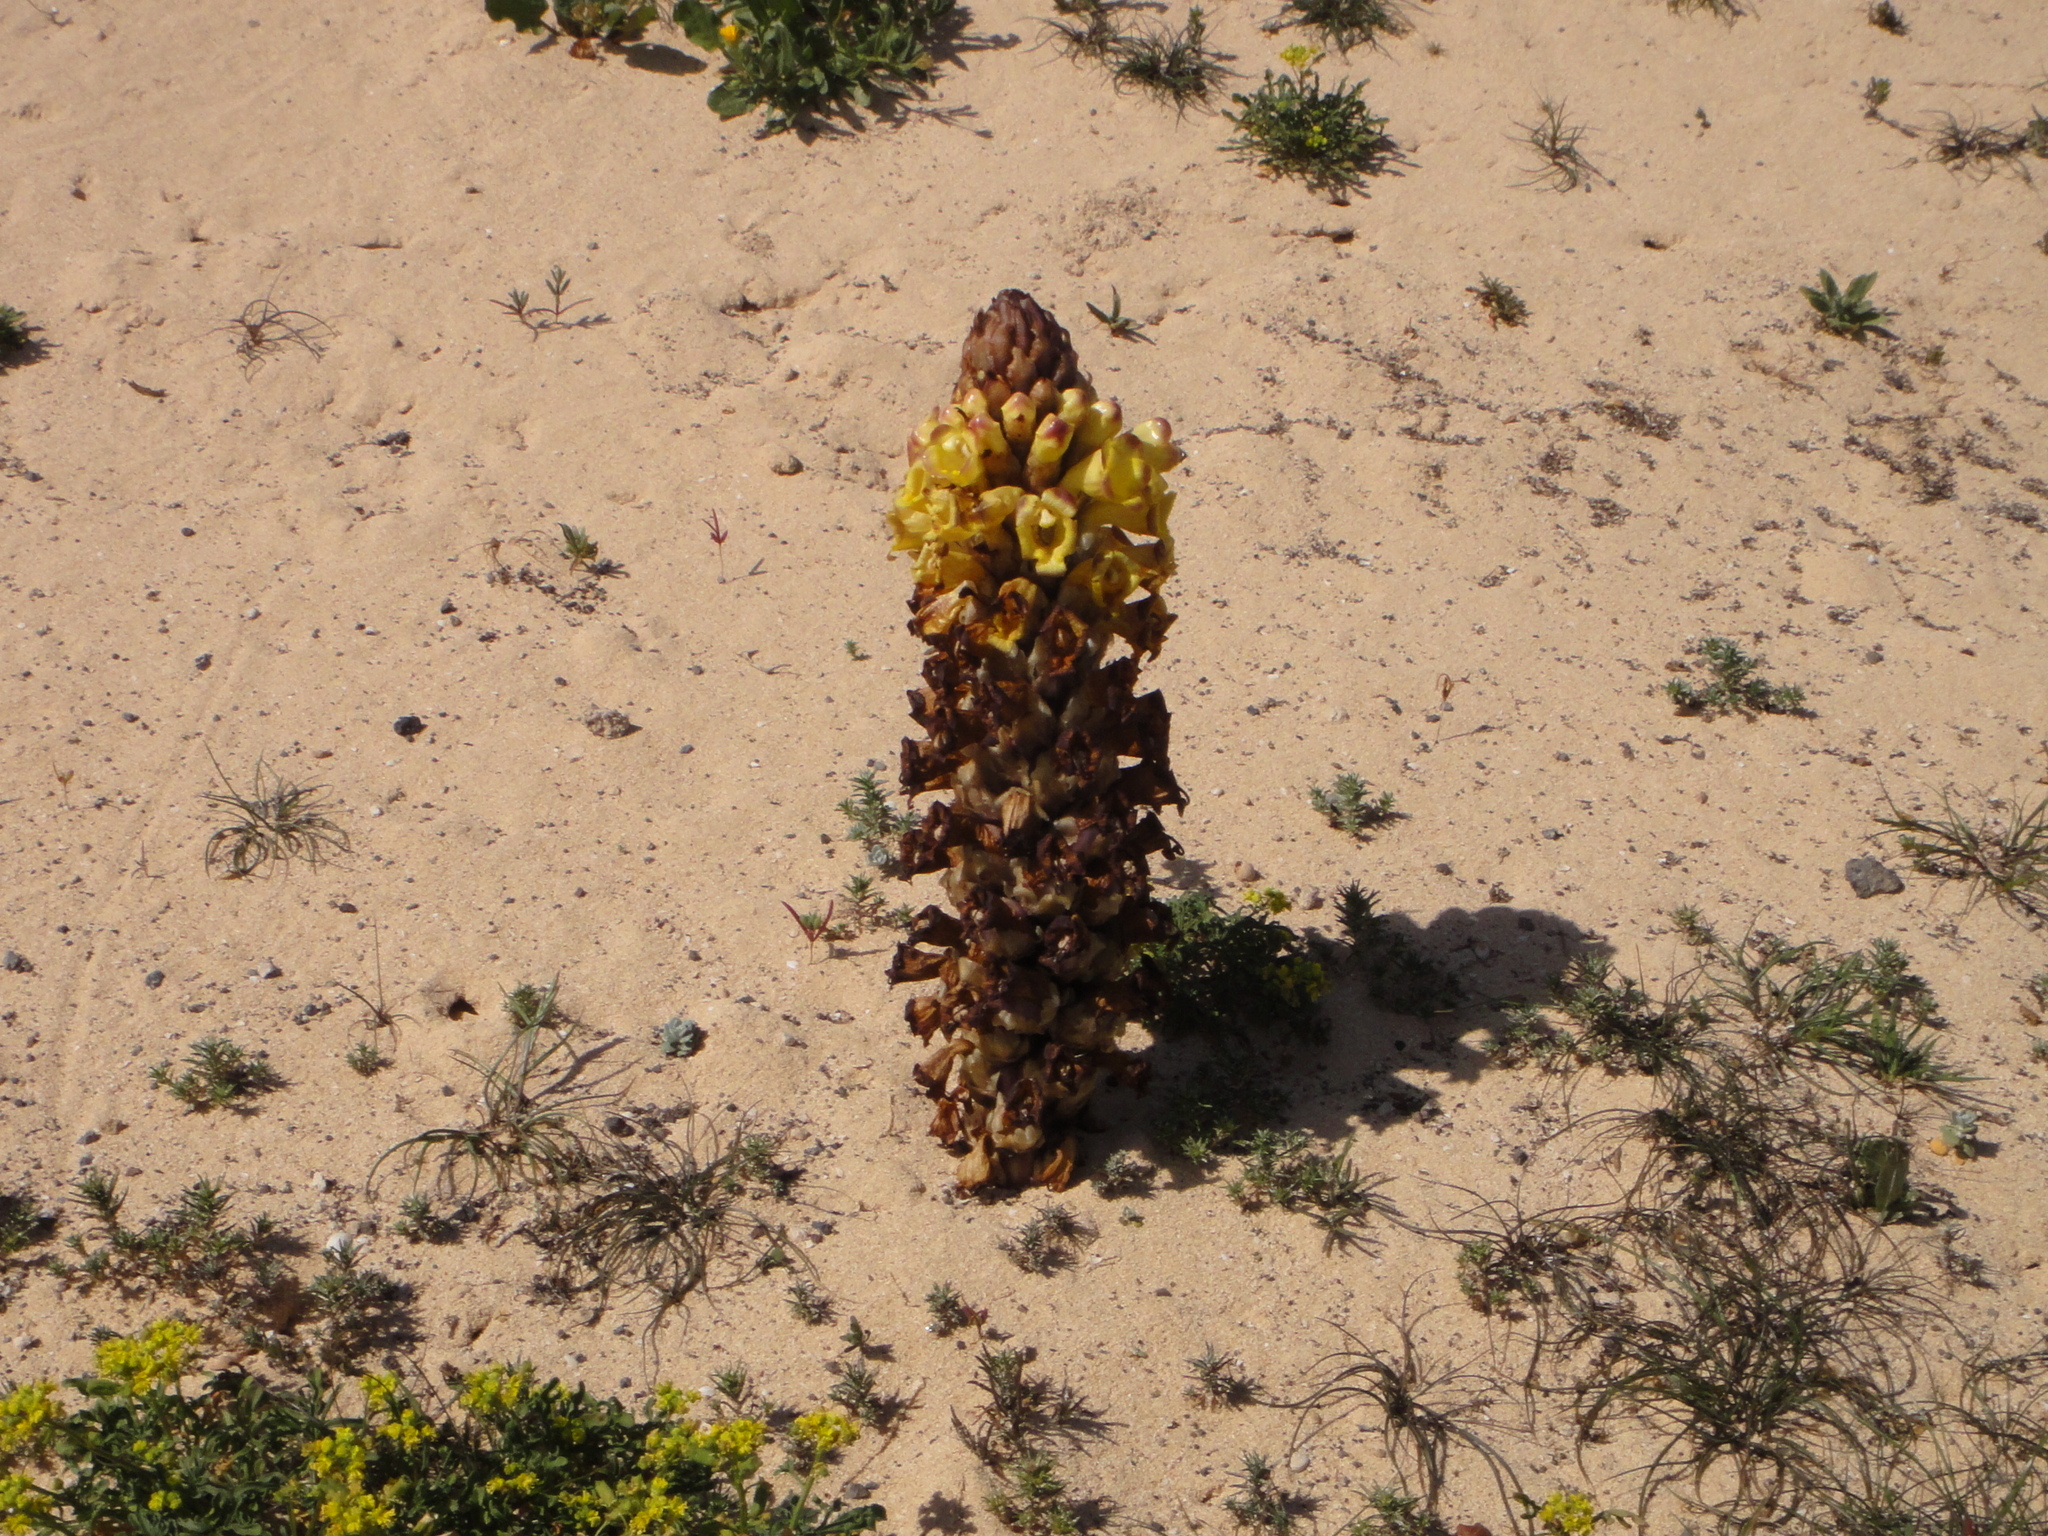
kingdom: Plantae
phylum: Tracheophyta
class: Magnoliopsida
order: Lamiales
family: Orobanchaceae
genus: Cistanche
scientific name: Cistanche phelypaea
